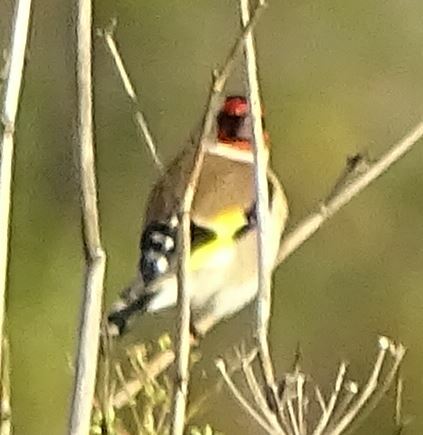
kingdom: Animalia
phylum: Chordata
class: Aves
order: Passeriformes
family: Fringillidae
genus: Carduelis
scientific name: Carduelis carduelis
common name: European goldfinch
